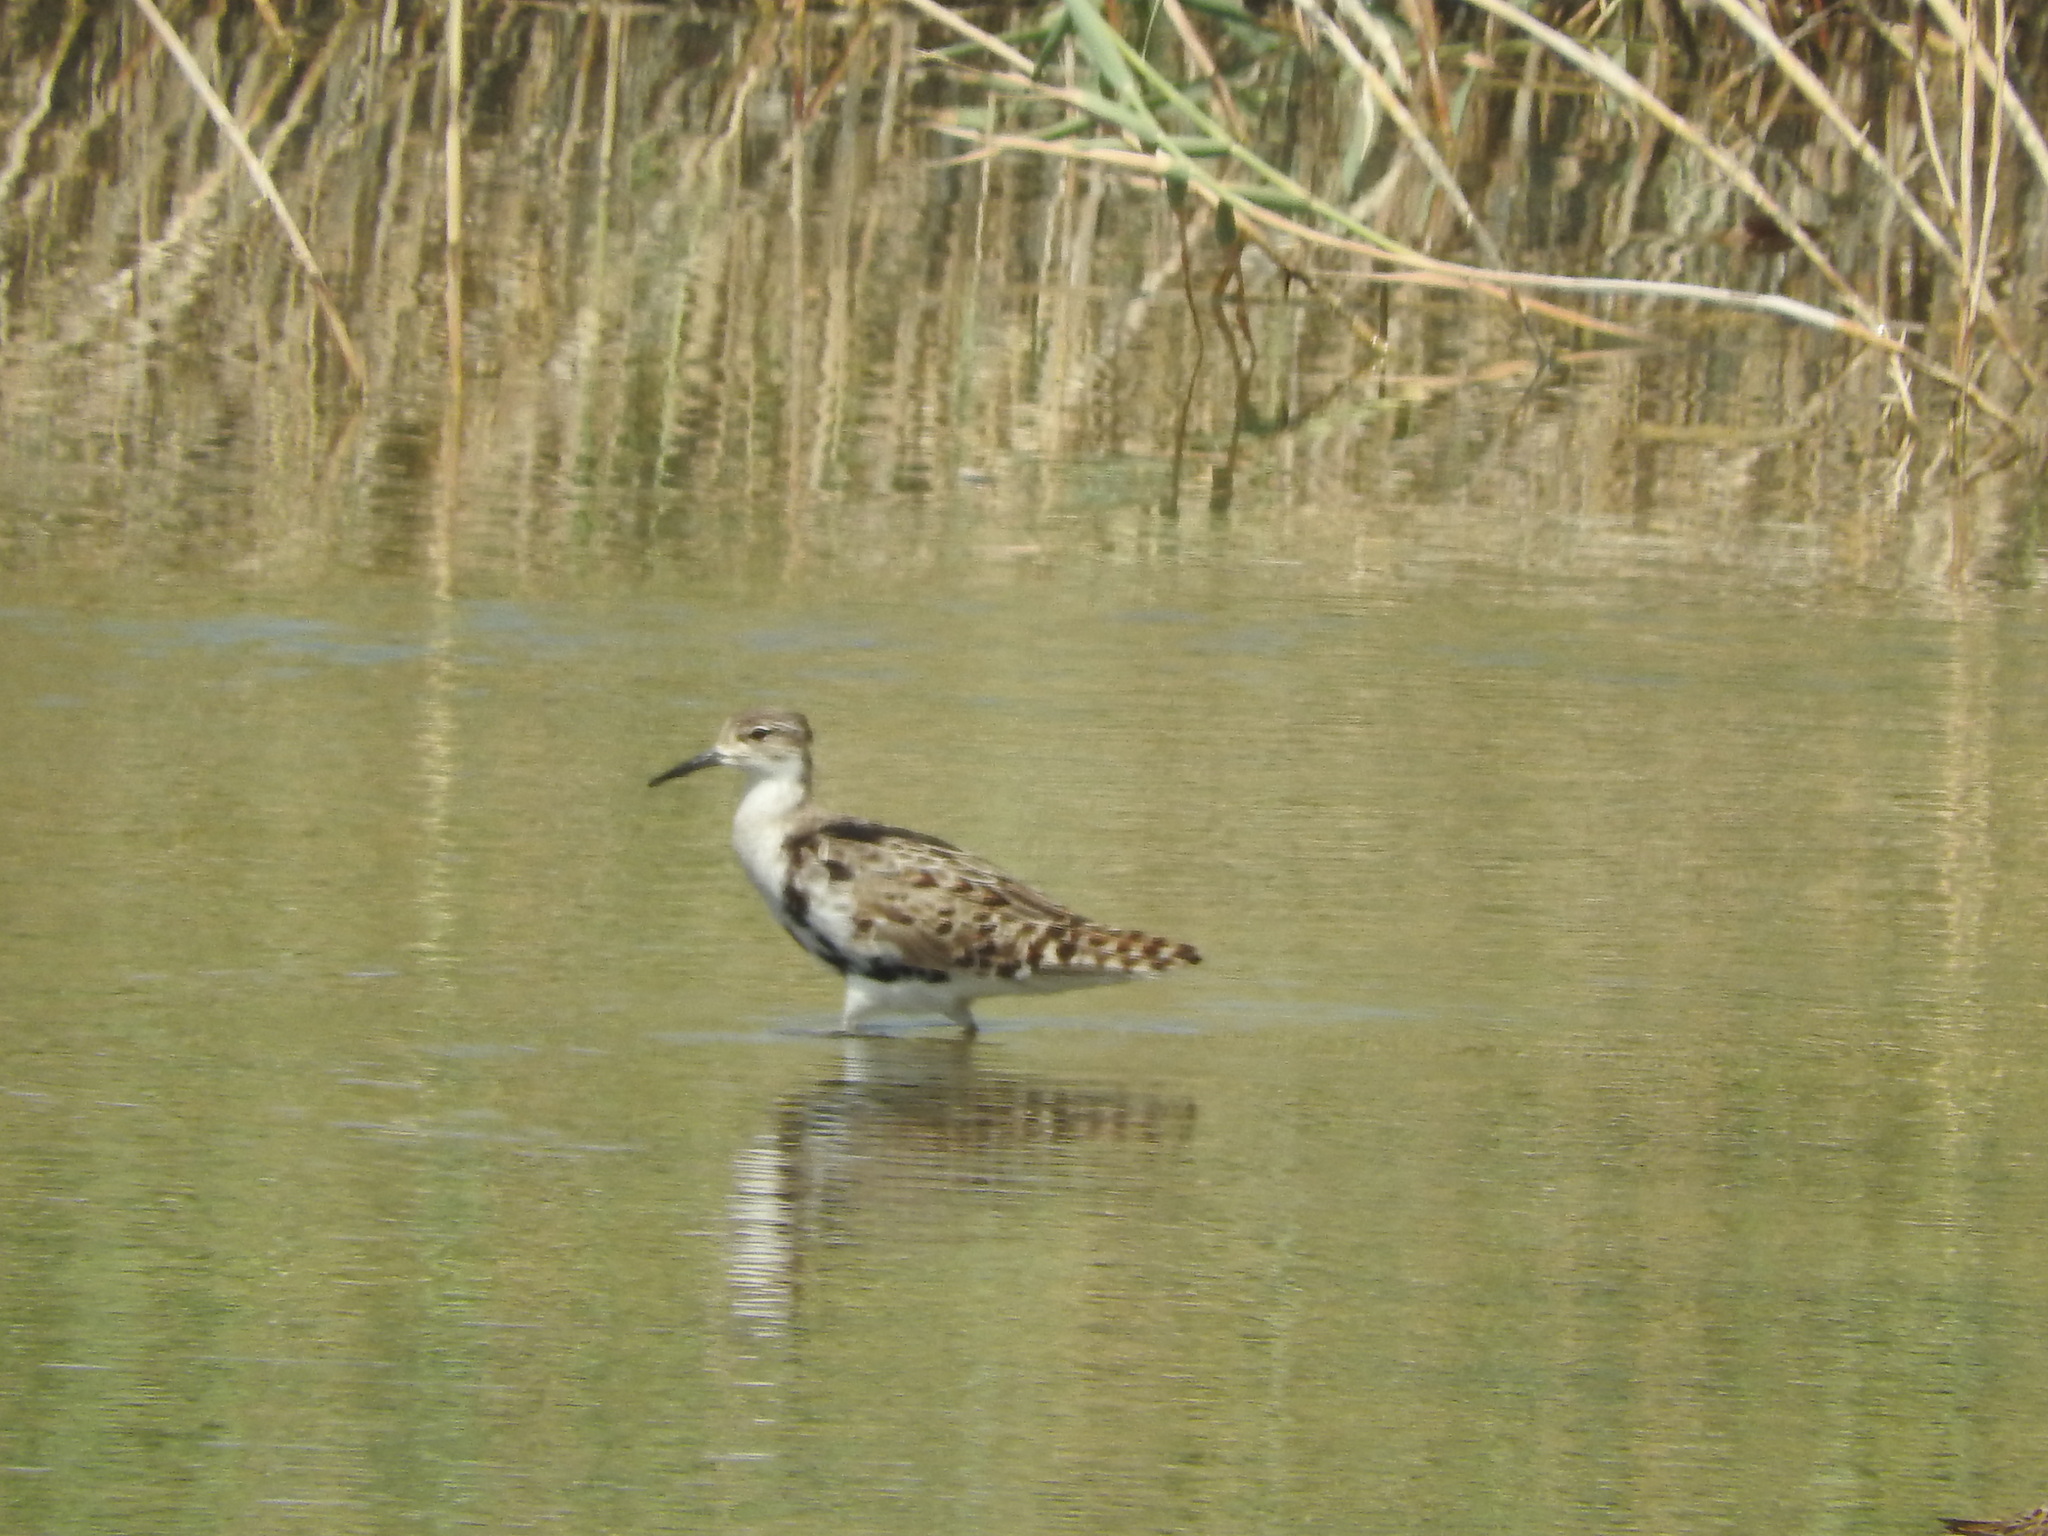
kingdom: Animalia
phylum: Chordata
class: Aves
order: Charadriiformes
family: Scolopacidae
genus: Calidris
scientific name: Calidris pugnax
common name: Ruff
